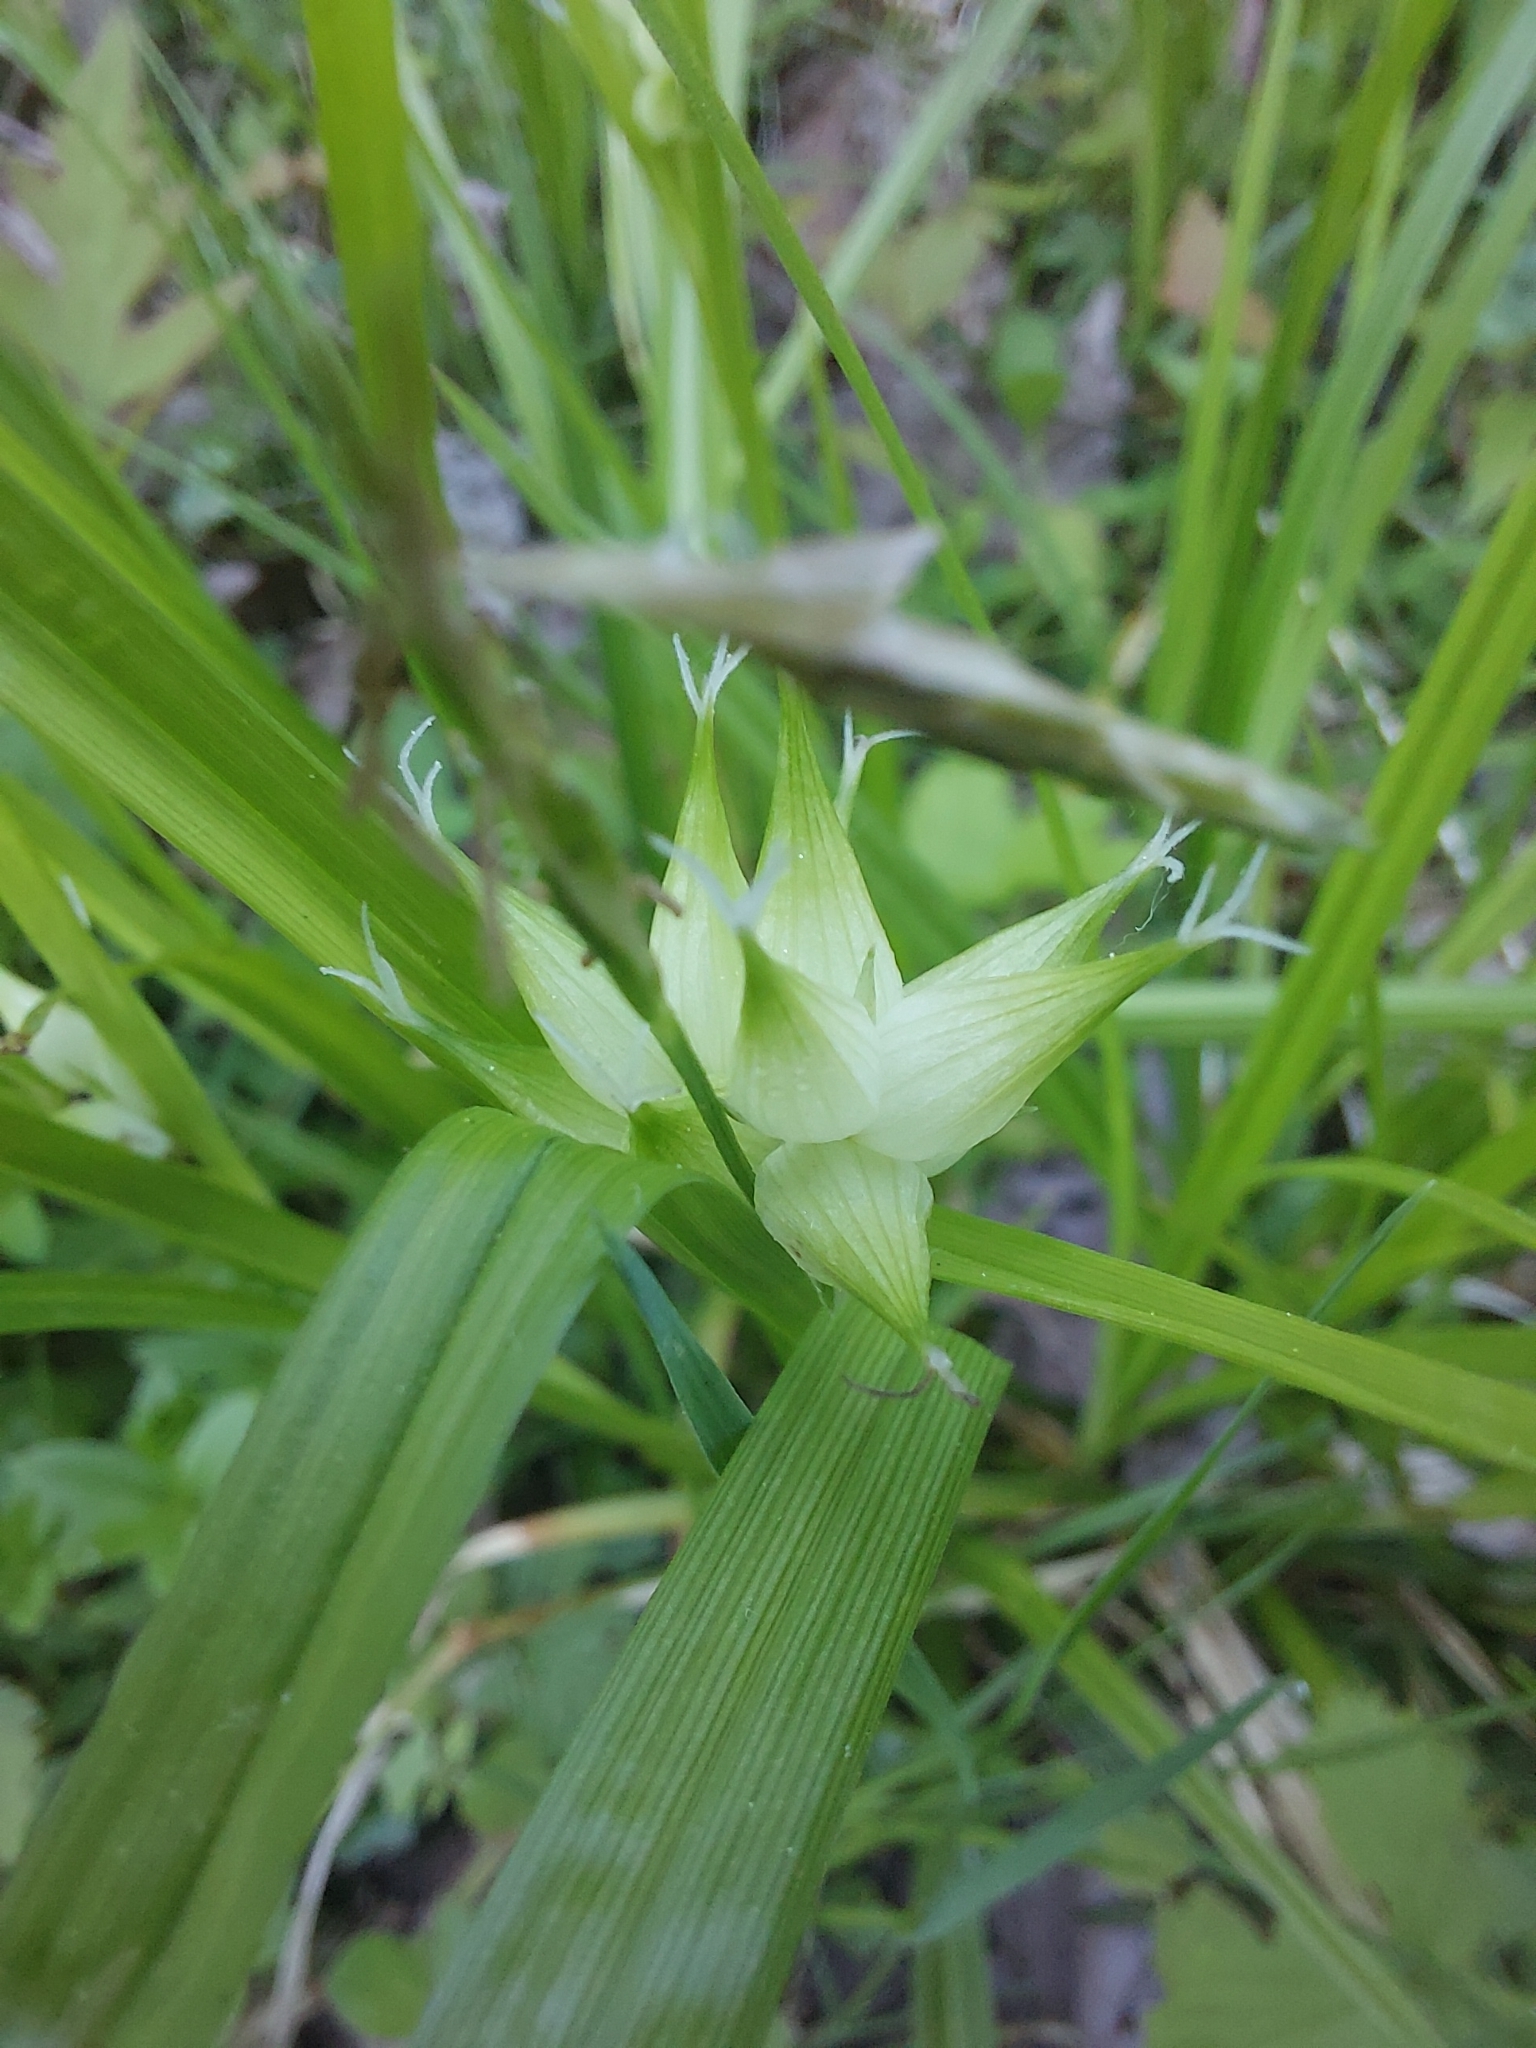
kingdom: Plantae
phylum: Tracheophyta
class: Liliopsida
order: Poales
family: Cyperaceae
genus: Carex
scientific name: Carex intumescens
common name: Greater bladder sedge
